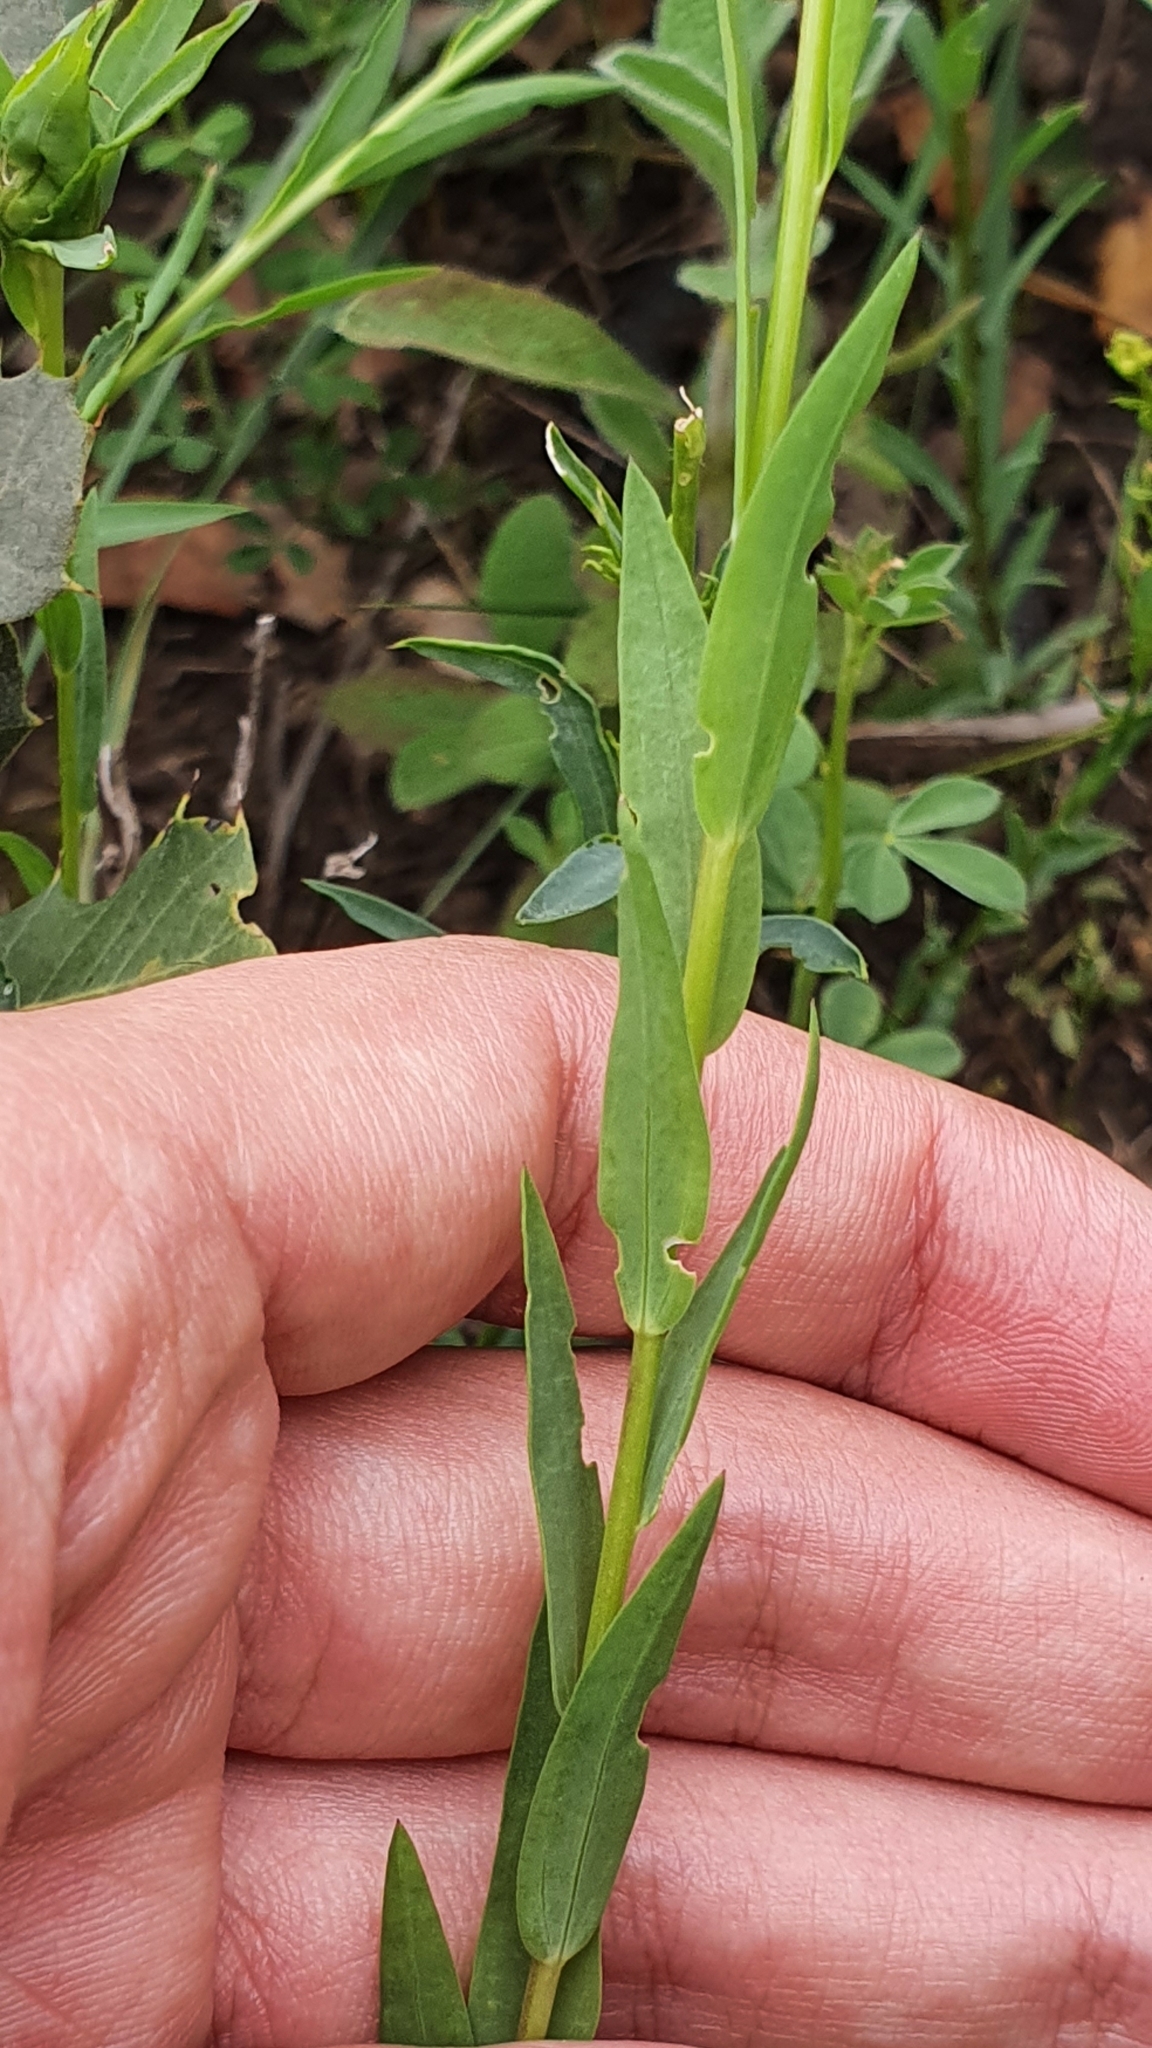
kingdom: Plantae
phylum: Tracheophyta
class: Magnoliopsida
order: Malpighiales
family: Linaceae
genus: Linum
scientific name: Linum corymbiferum
